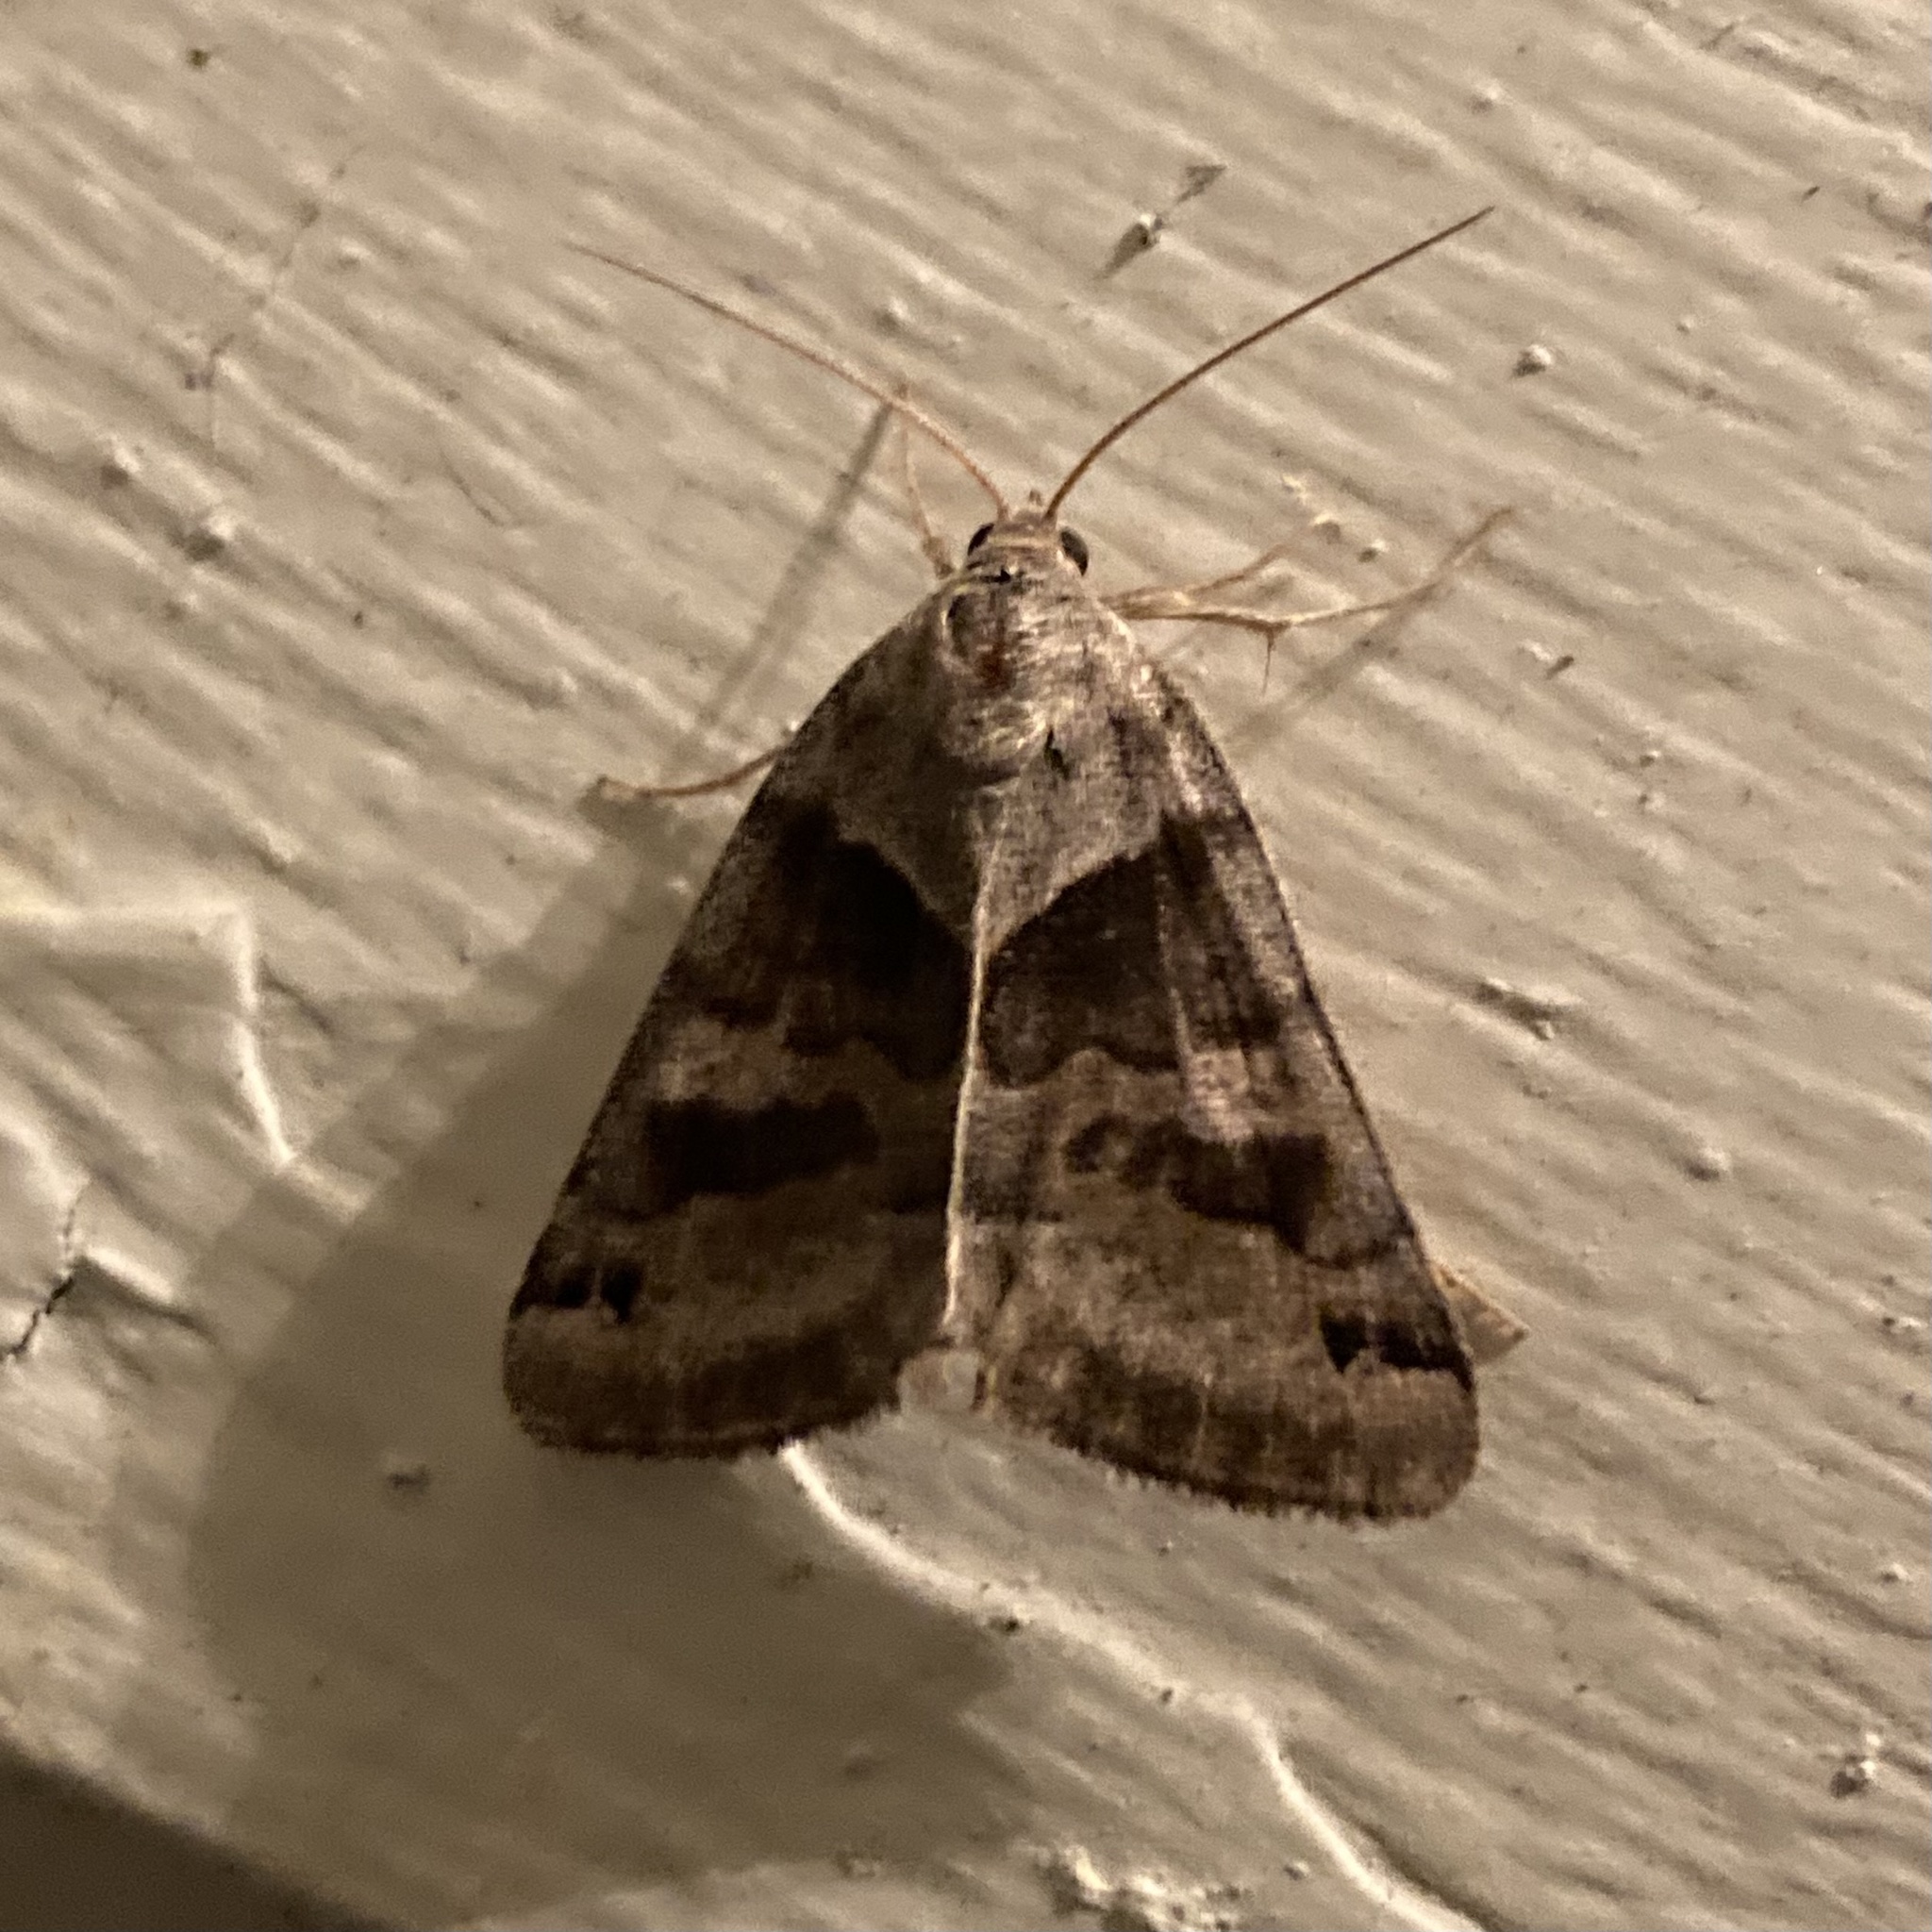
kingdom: Animalia
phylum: Arthropoda
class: Insecta
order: Lepidoptera
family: Erebidae
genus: Caenurgina
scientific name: Caenurgina crassiuscula
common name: Double-barred
